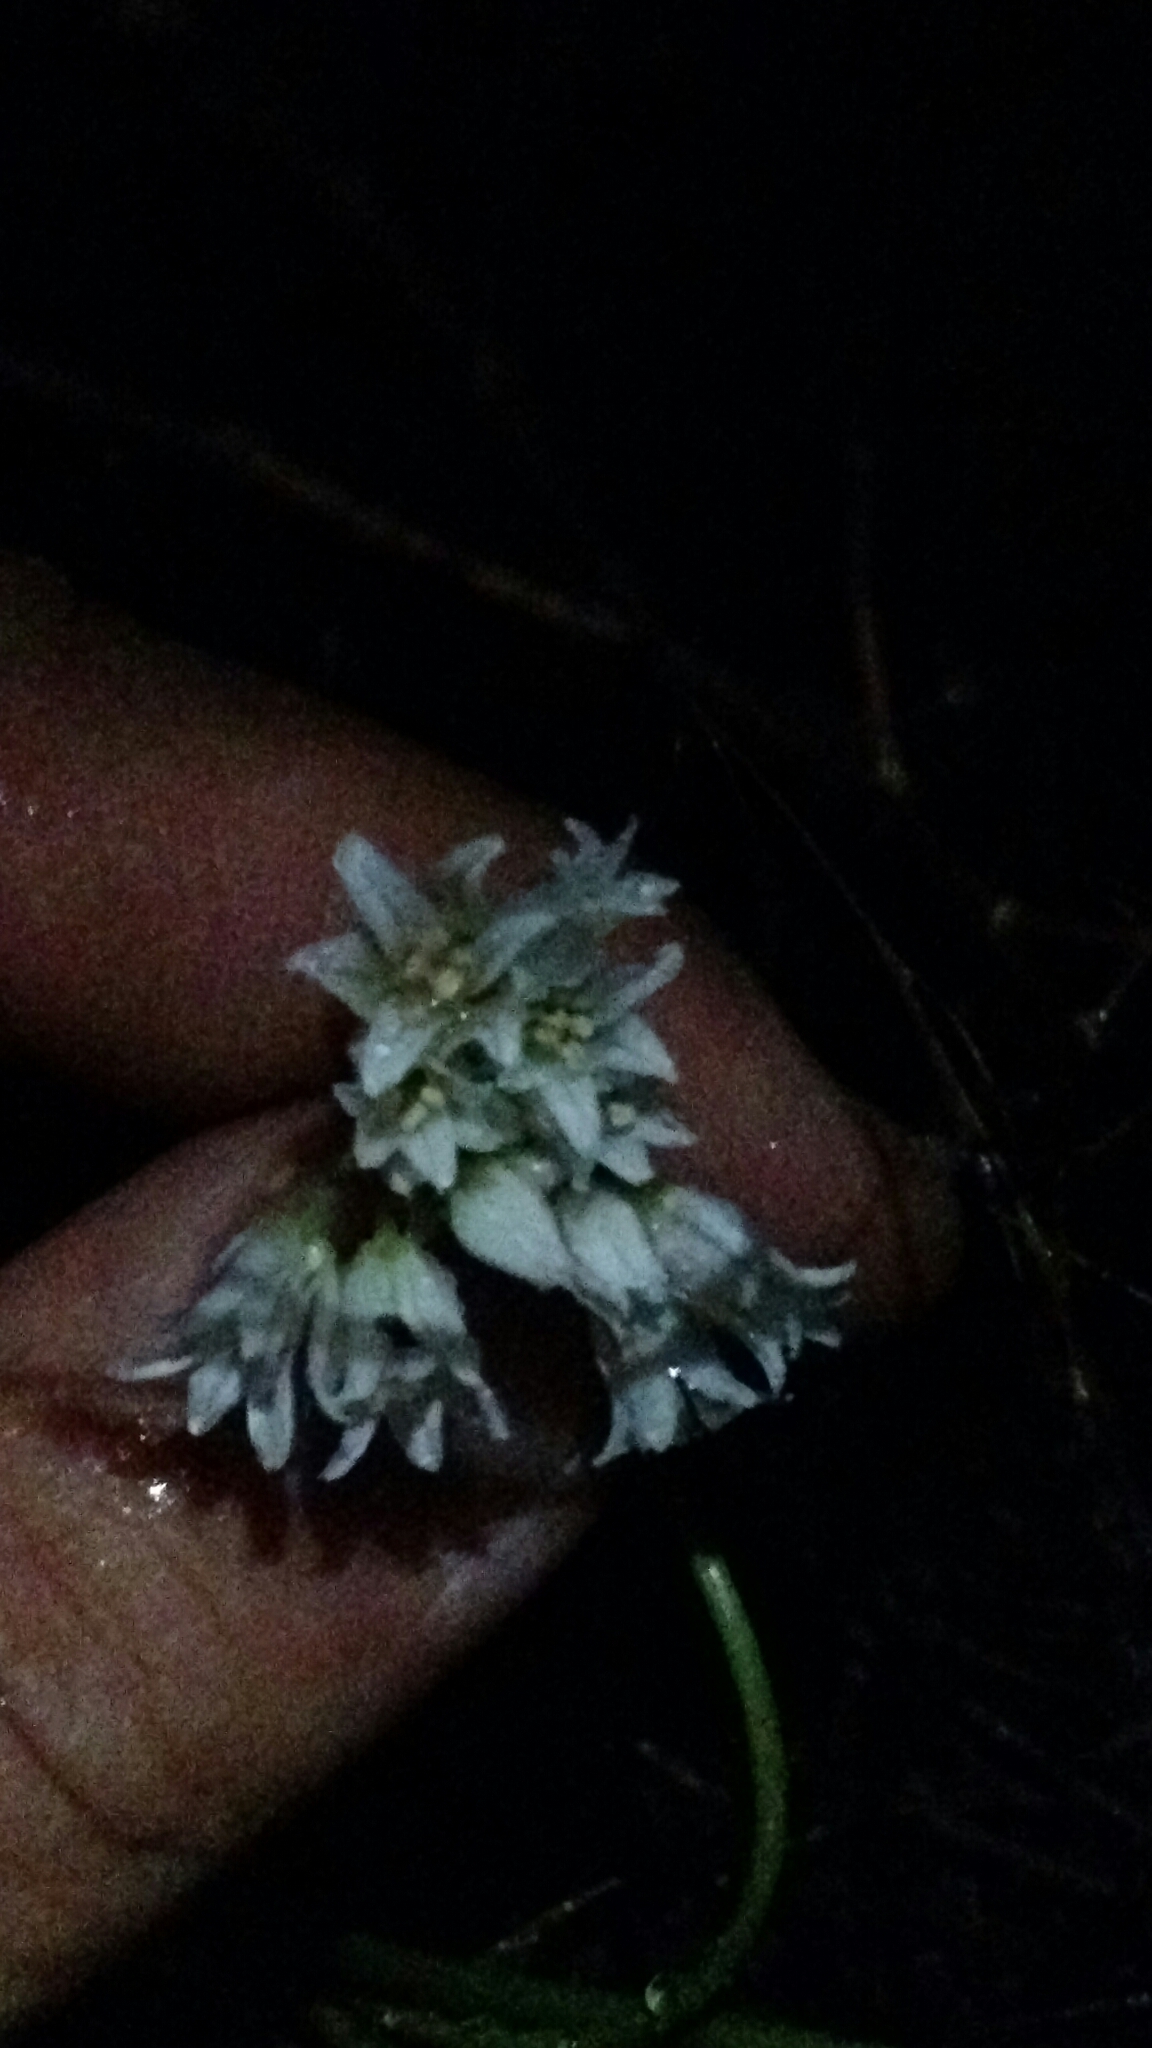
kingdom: Plantae
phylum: Tracheophyta
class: Liliopsida
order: Asparagales
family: Amaryllidaceae
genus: Allium
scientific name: Allium textile
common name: Prairie onion
